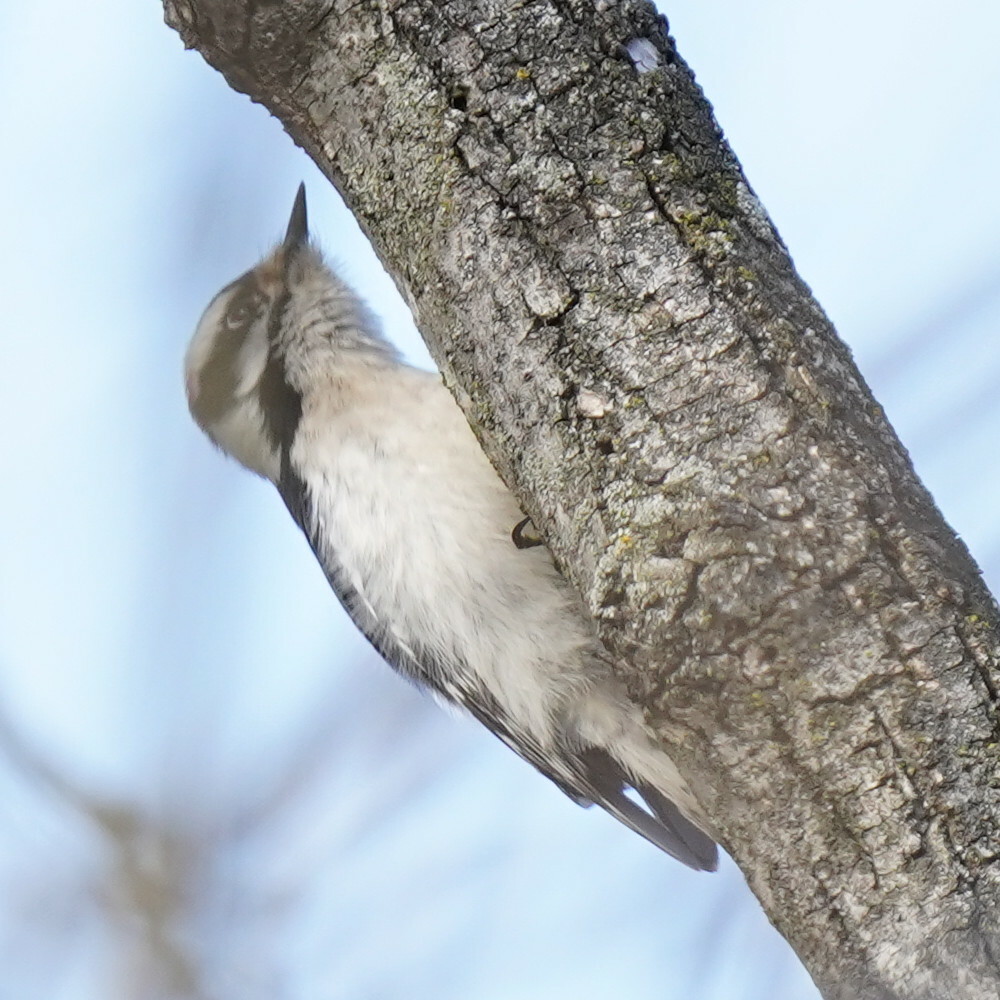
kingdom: Animalia
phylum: Chordata
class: Aves
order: Piciformes
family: Picidae
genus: Dryobates
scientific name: Dryobates pubescens
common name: Downy woodpecker
